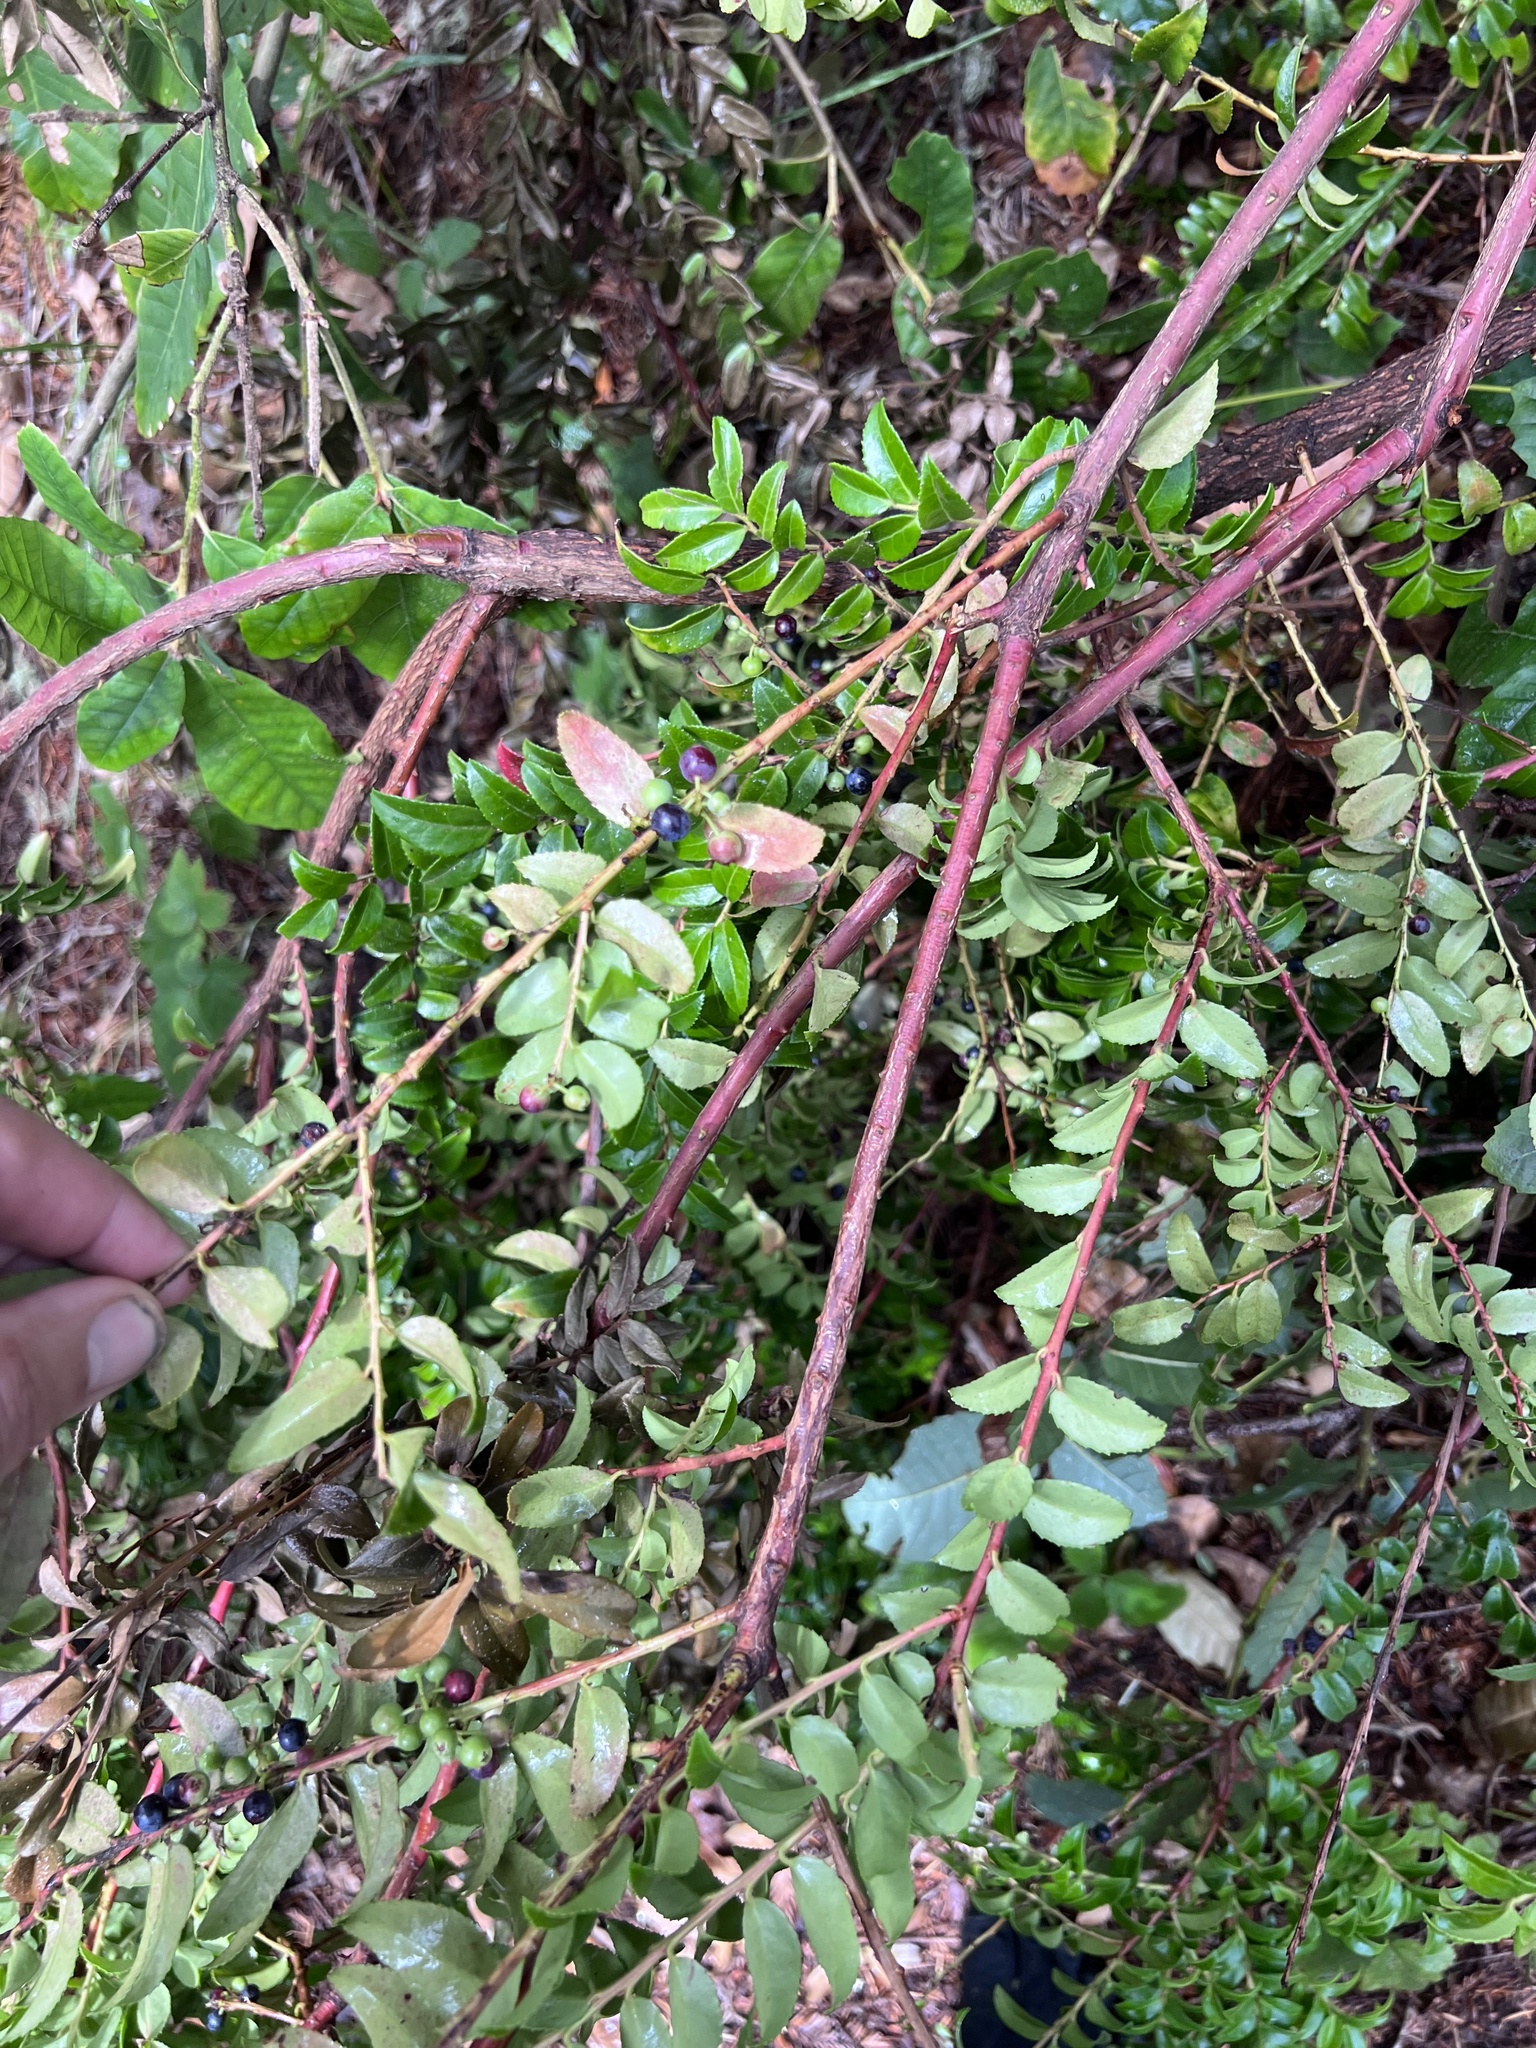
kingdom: Plantae
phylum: Tracheophyta
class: Magnoliopsida
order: Ericales
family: Ericaceae
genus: Vaccinium
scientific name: Vaccinium ovatum
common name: California-huckleberry
